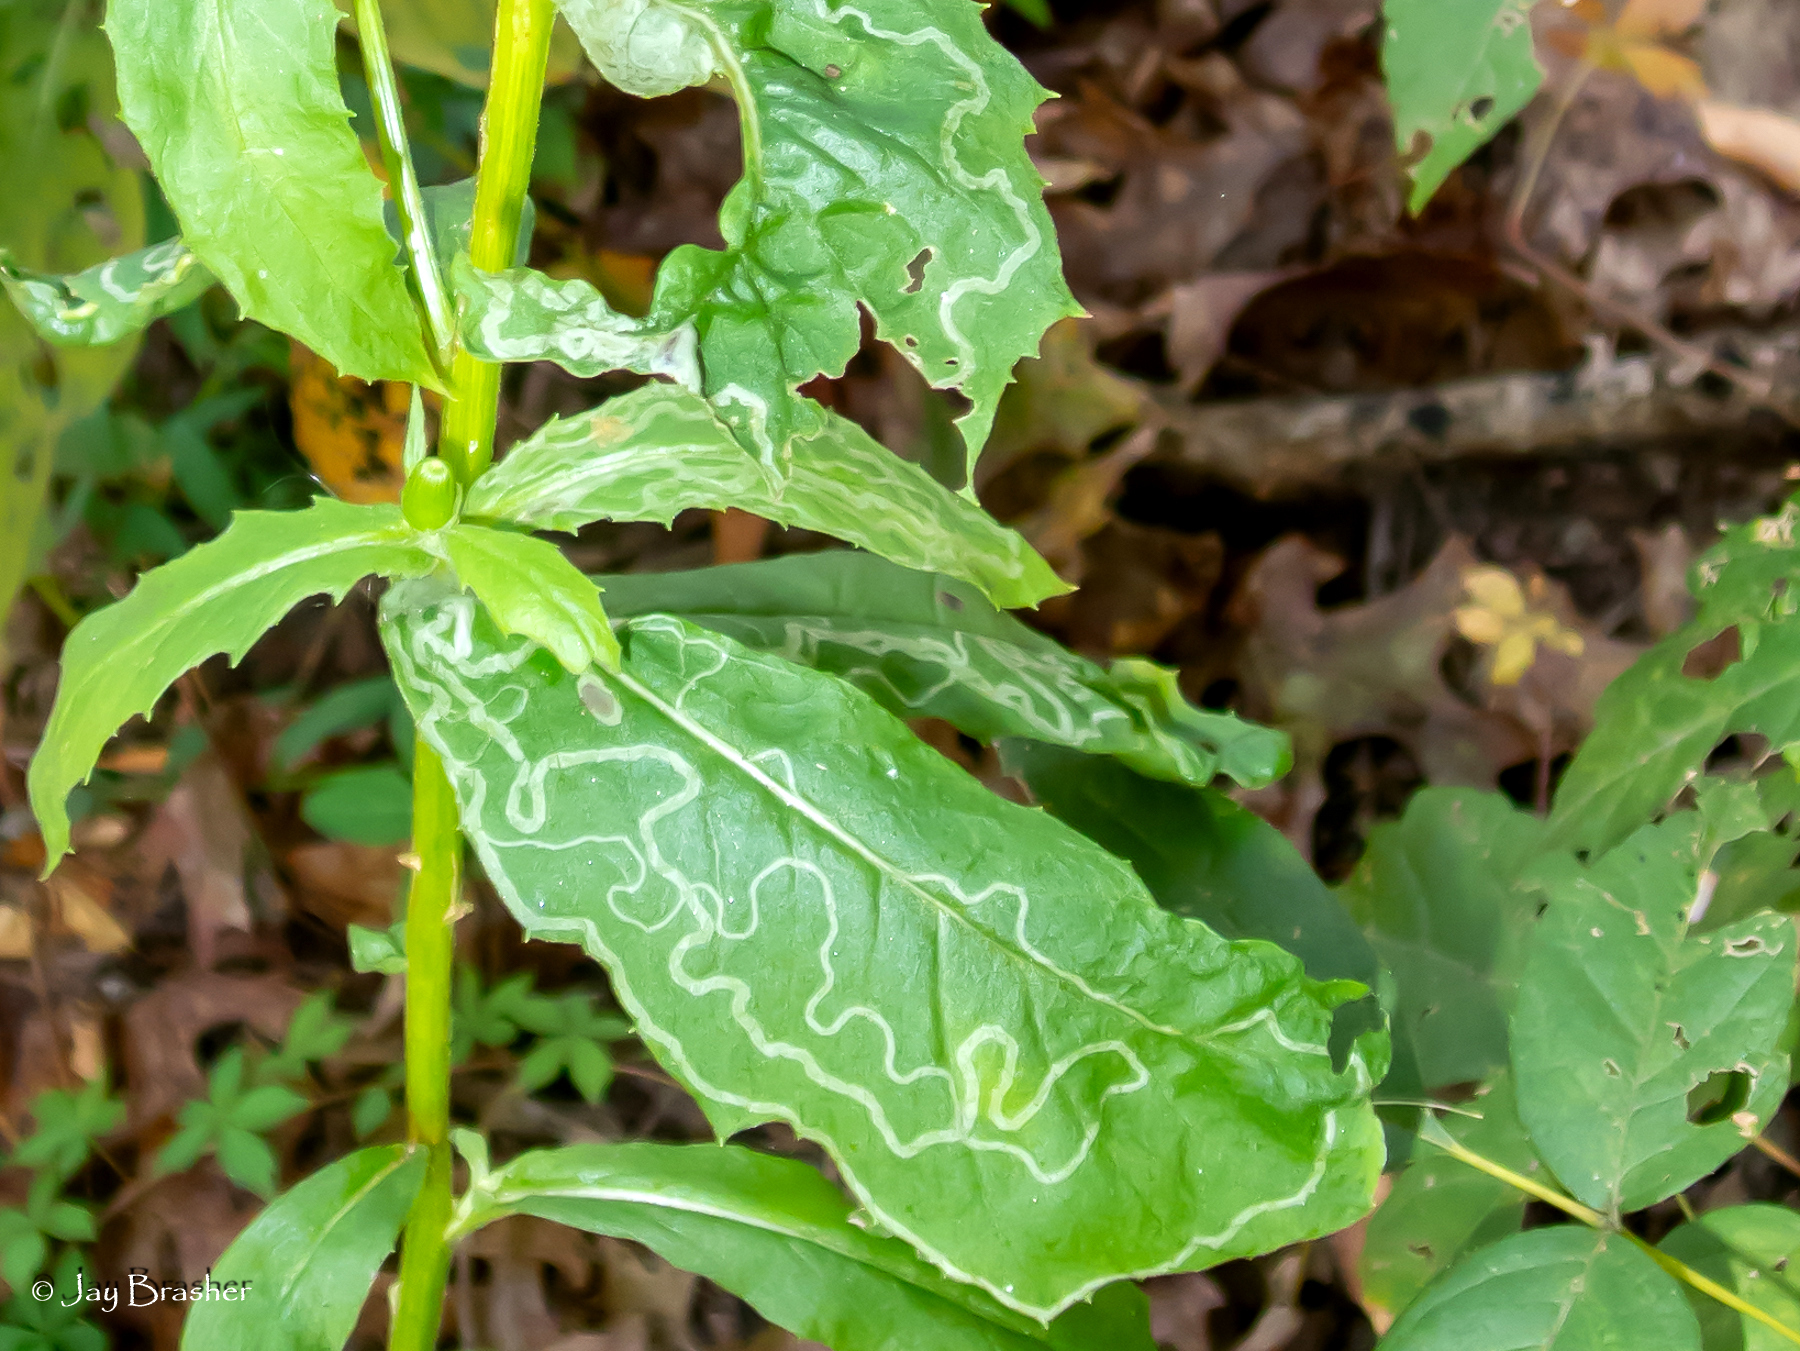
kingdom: Animalia
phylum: Arthropoda
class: Insecta
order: Lepidoptera
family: Gracillariidae
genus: Phyllocnistis
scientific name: Phyllocnistis insignis
